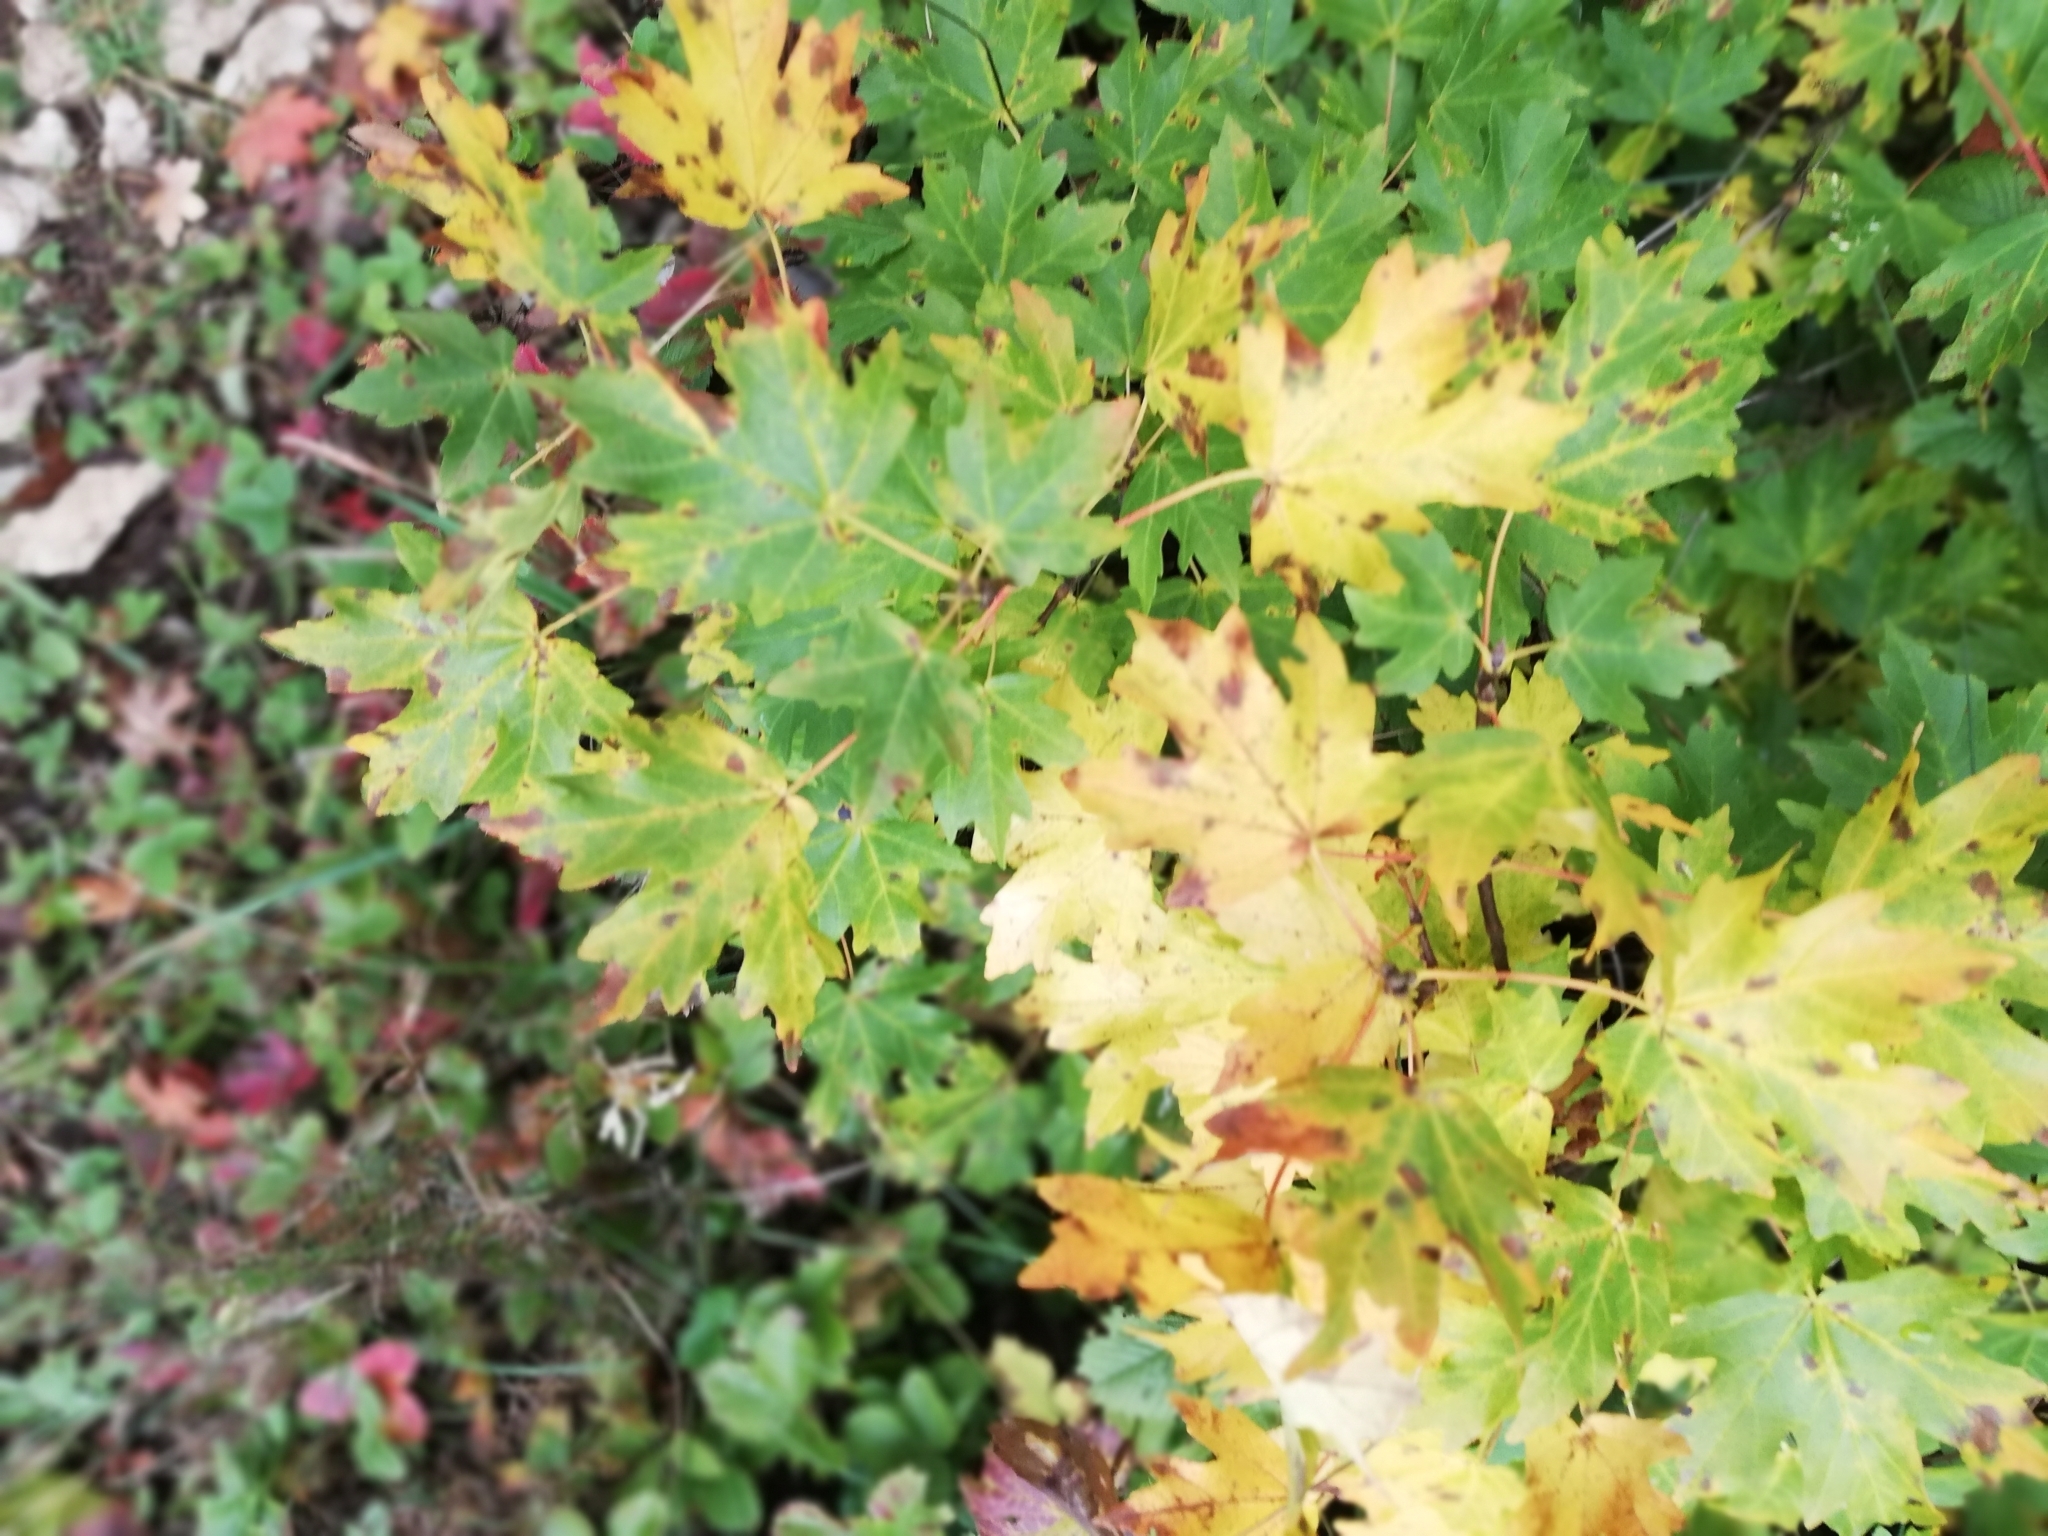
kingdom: Plantae
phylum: Tracheophyta
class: Magnoliopsida
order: Sapindales
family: Sapindaceae
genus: Acer
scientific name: Acer campestre
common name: Field maple
